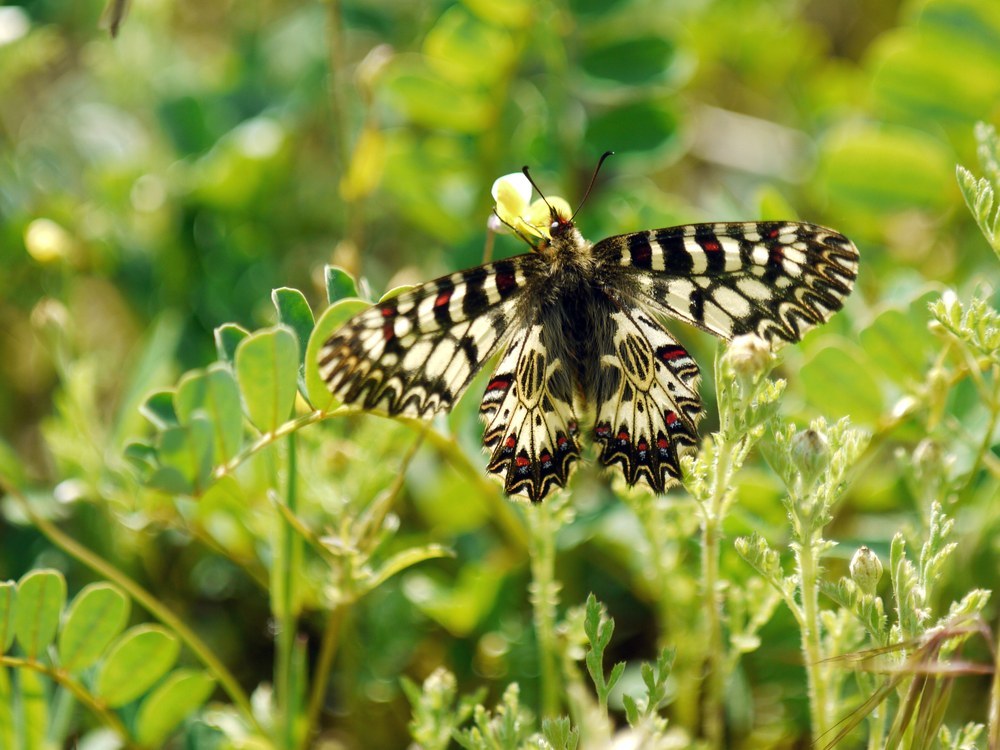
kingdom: Animalia
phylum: Arthropoda
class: Insecta
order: Lepidoptera
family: Papilionidae
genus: Zerynthia
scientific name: Zerynthia polyxena
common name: Southern festoon
